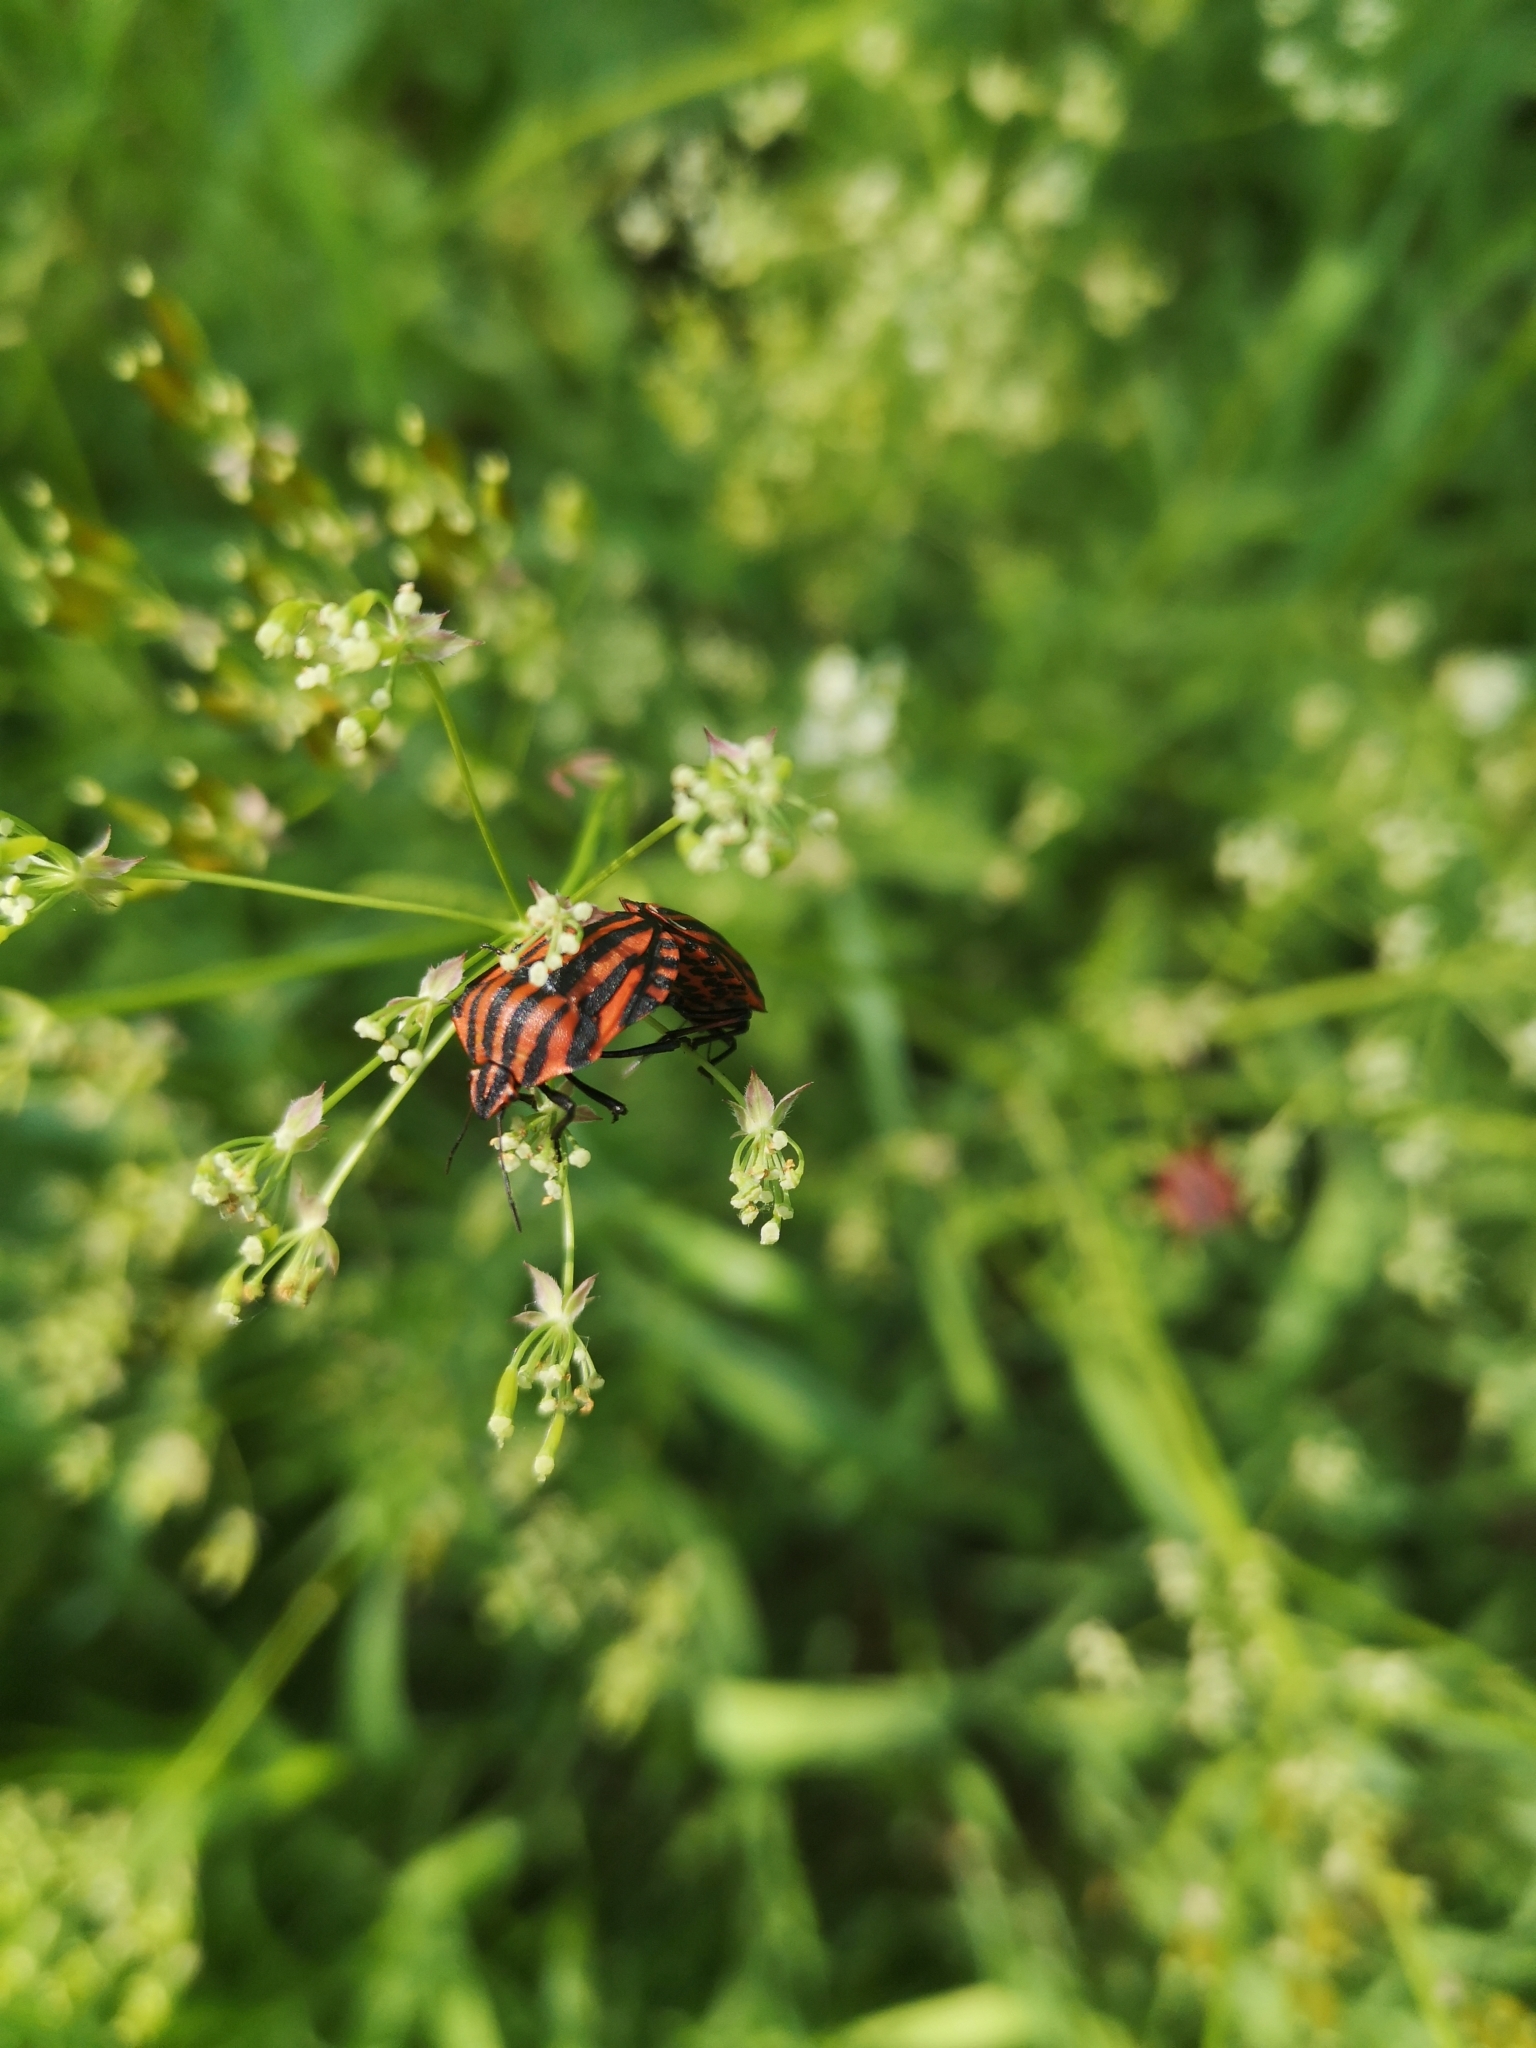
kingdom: Animalia
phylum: Arthropoda
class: Insecta
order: Hemiptera
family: Pentatomidae
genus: Graphosoma
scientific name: Graphosoma italicum
